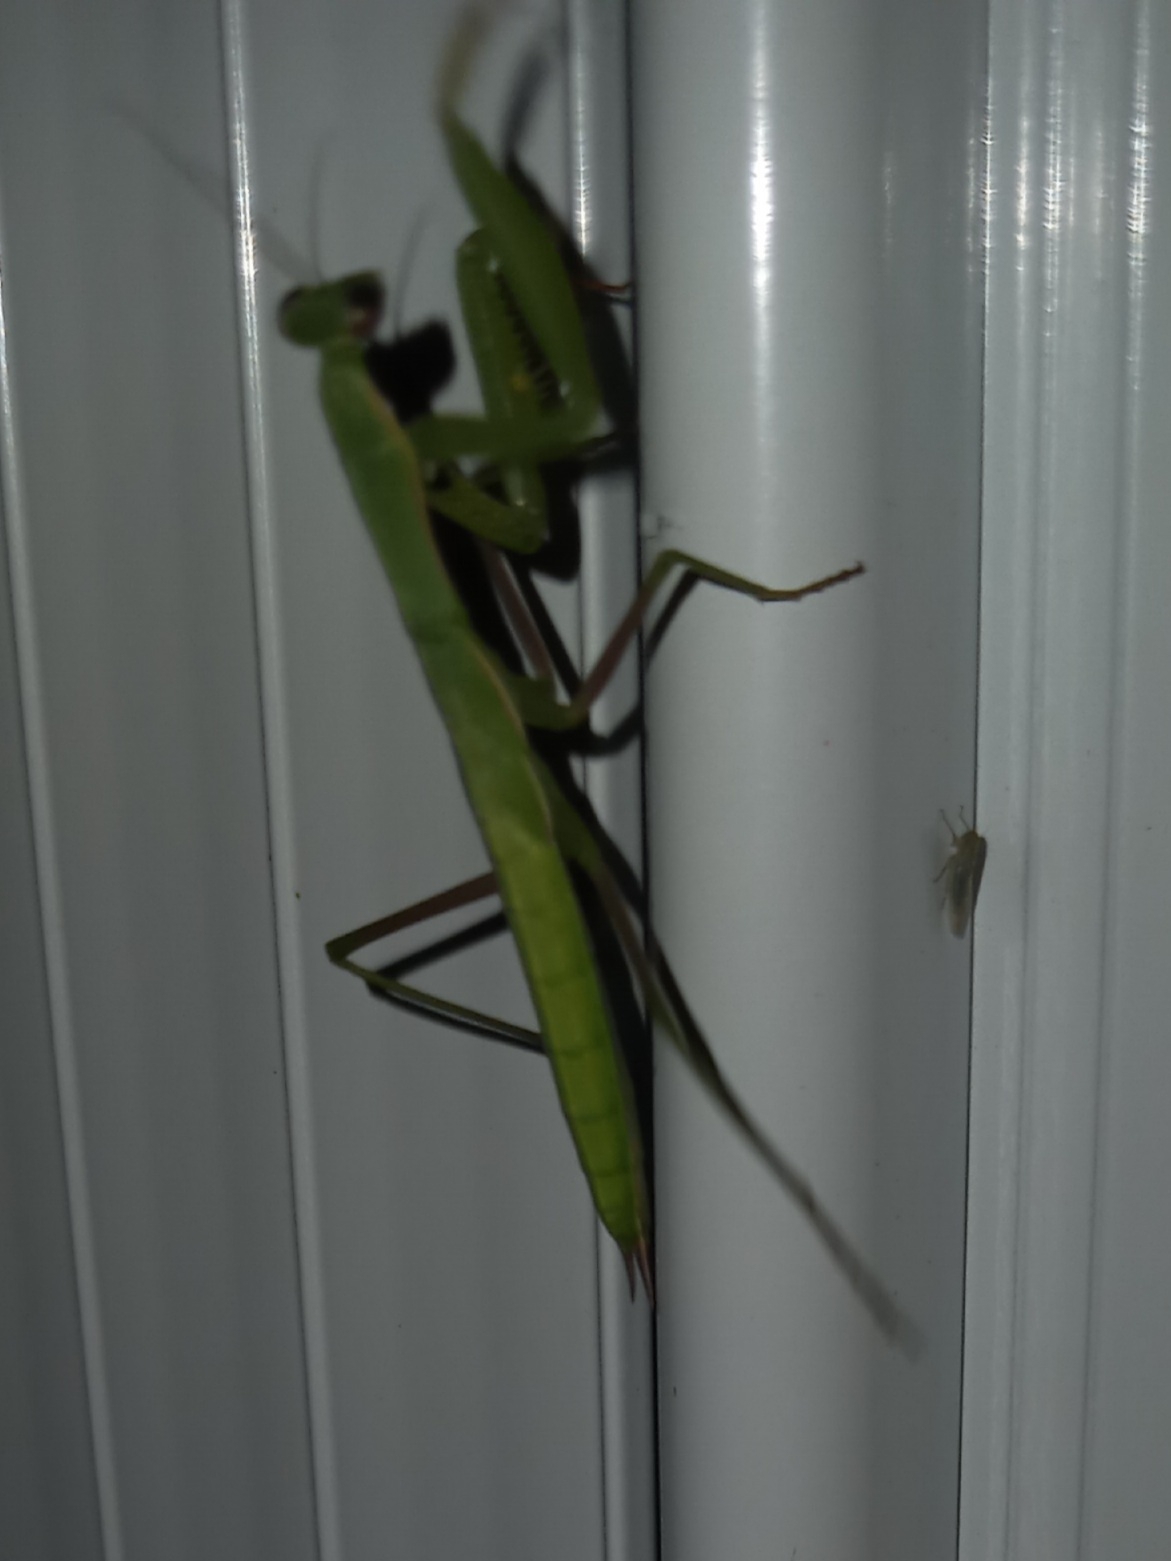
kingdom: Animalia
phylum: Arthropoda
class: Insecta
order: Mantodea
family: Mantidae
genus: Mantis
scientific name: Mantis religiosa
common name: Praying mantis
